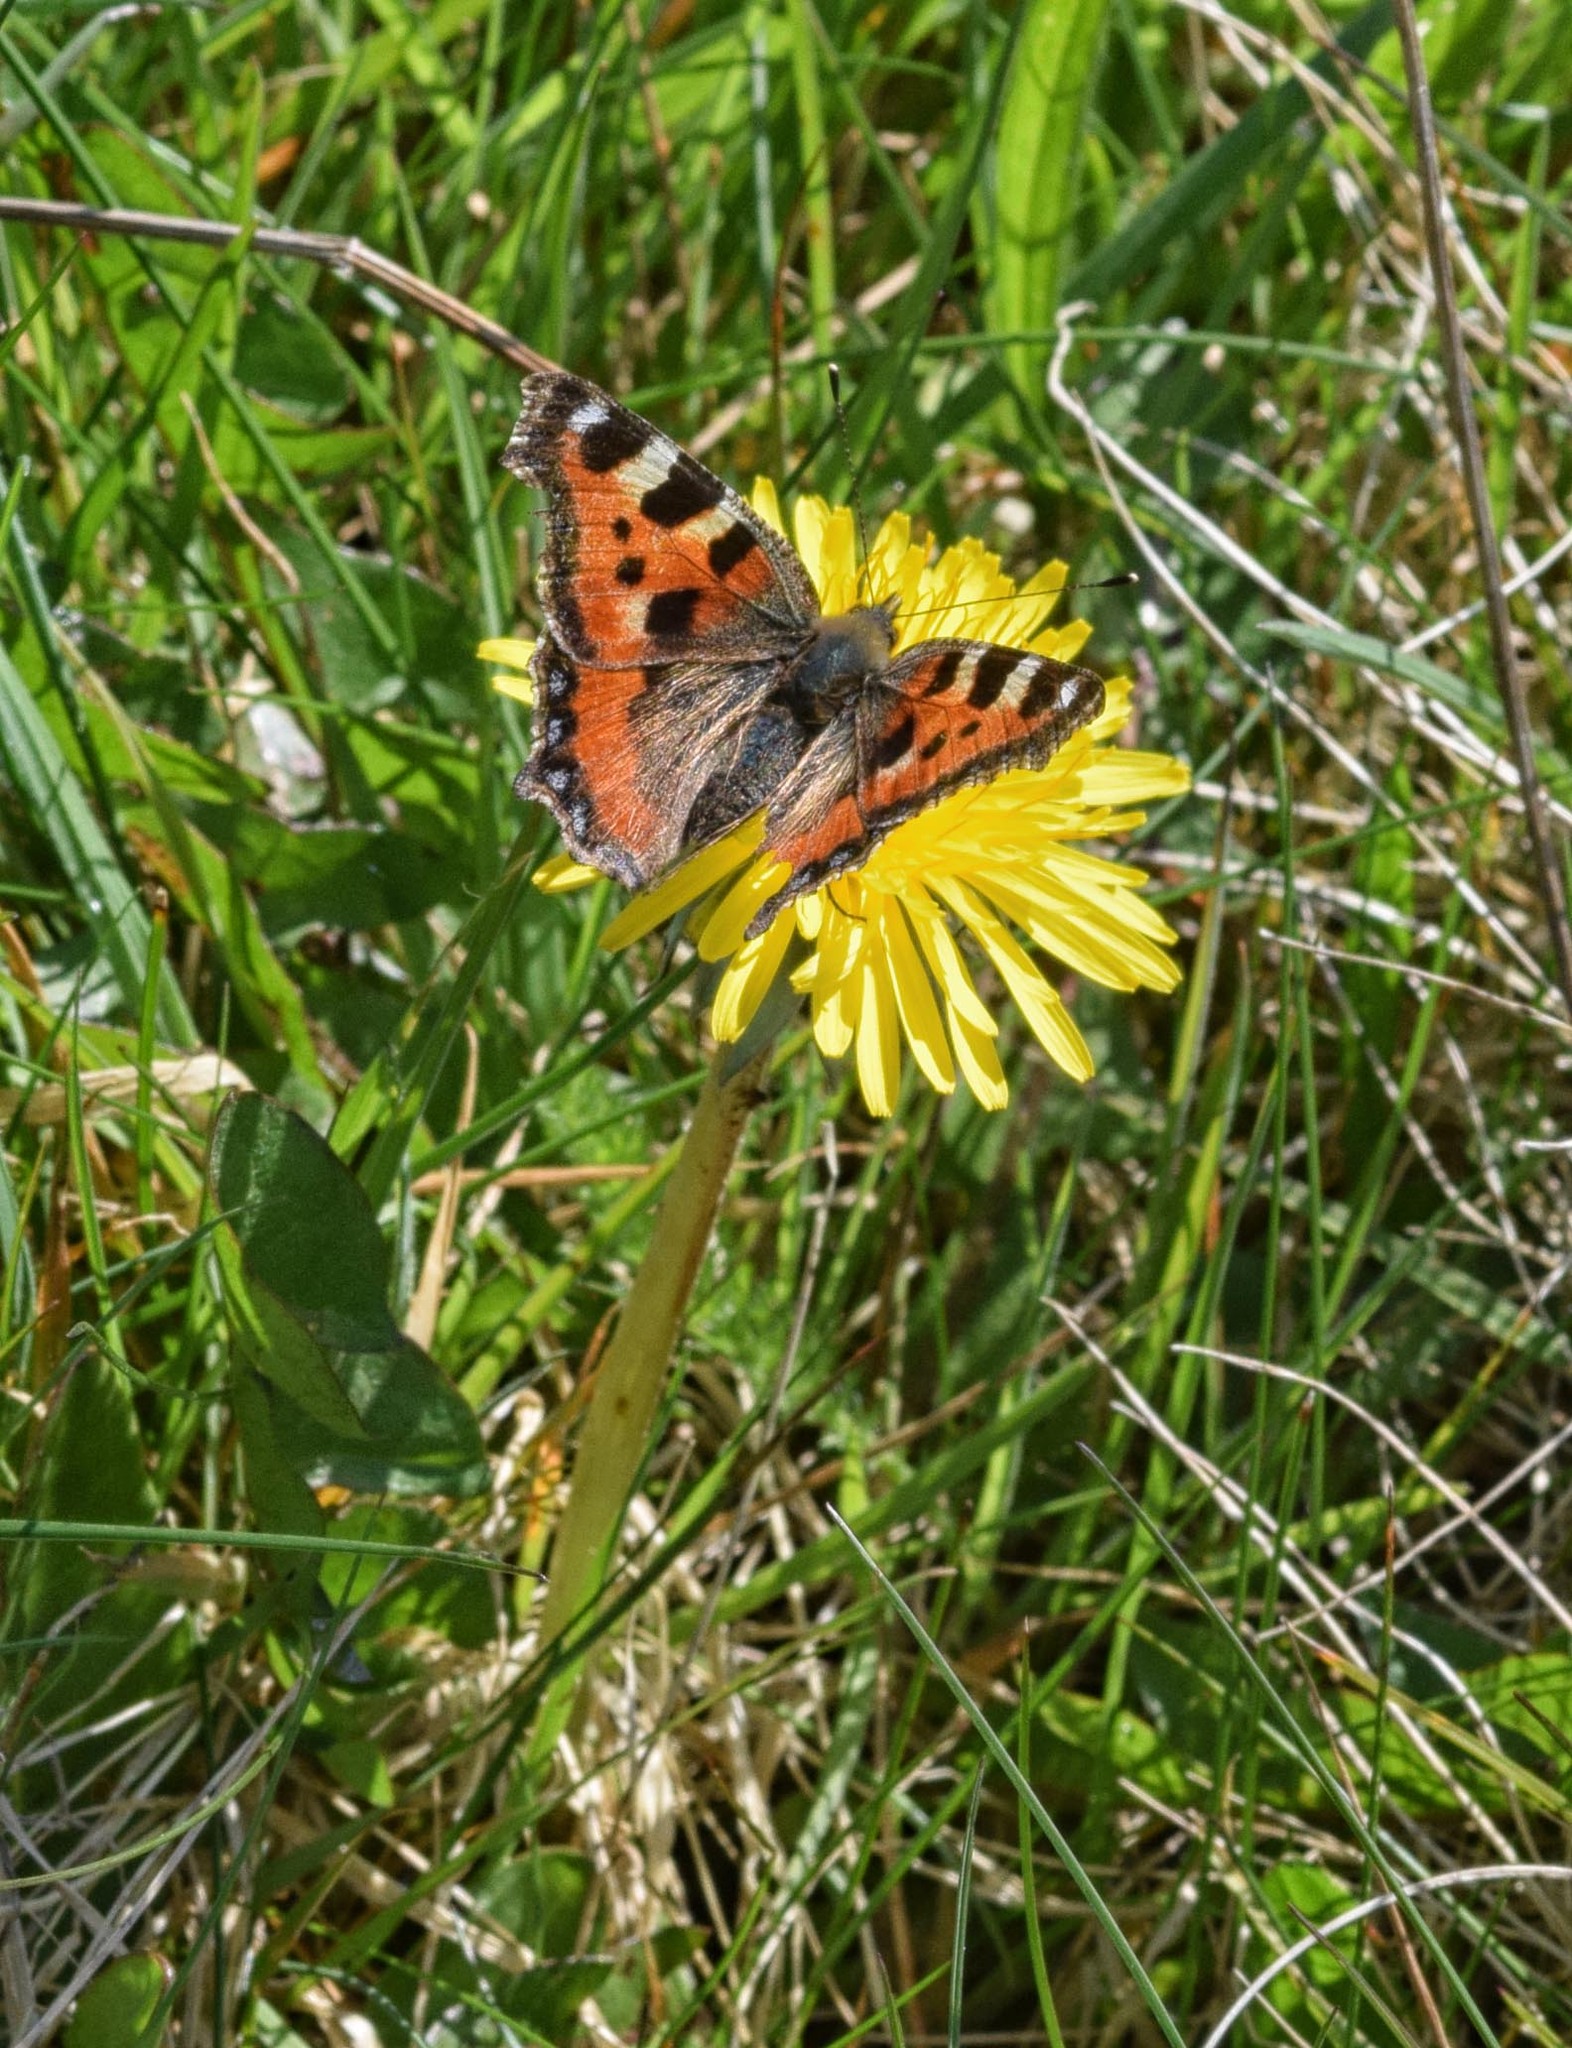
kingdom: Animalia
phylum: Arthropoda
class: Insecta
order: Lepidoptera
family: Nymphalidae
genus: Aglais
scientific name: Aglais urticae
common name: Small tortoiseshell
